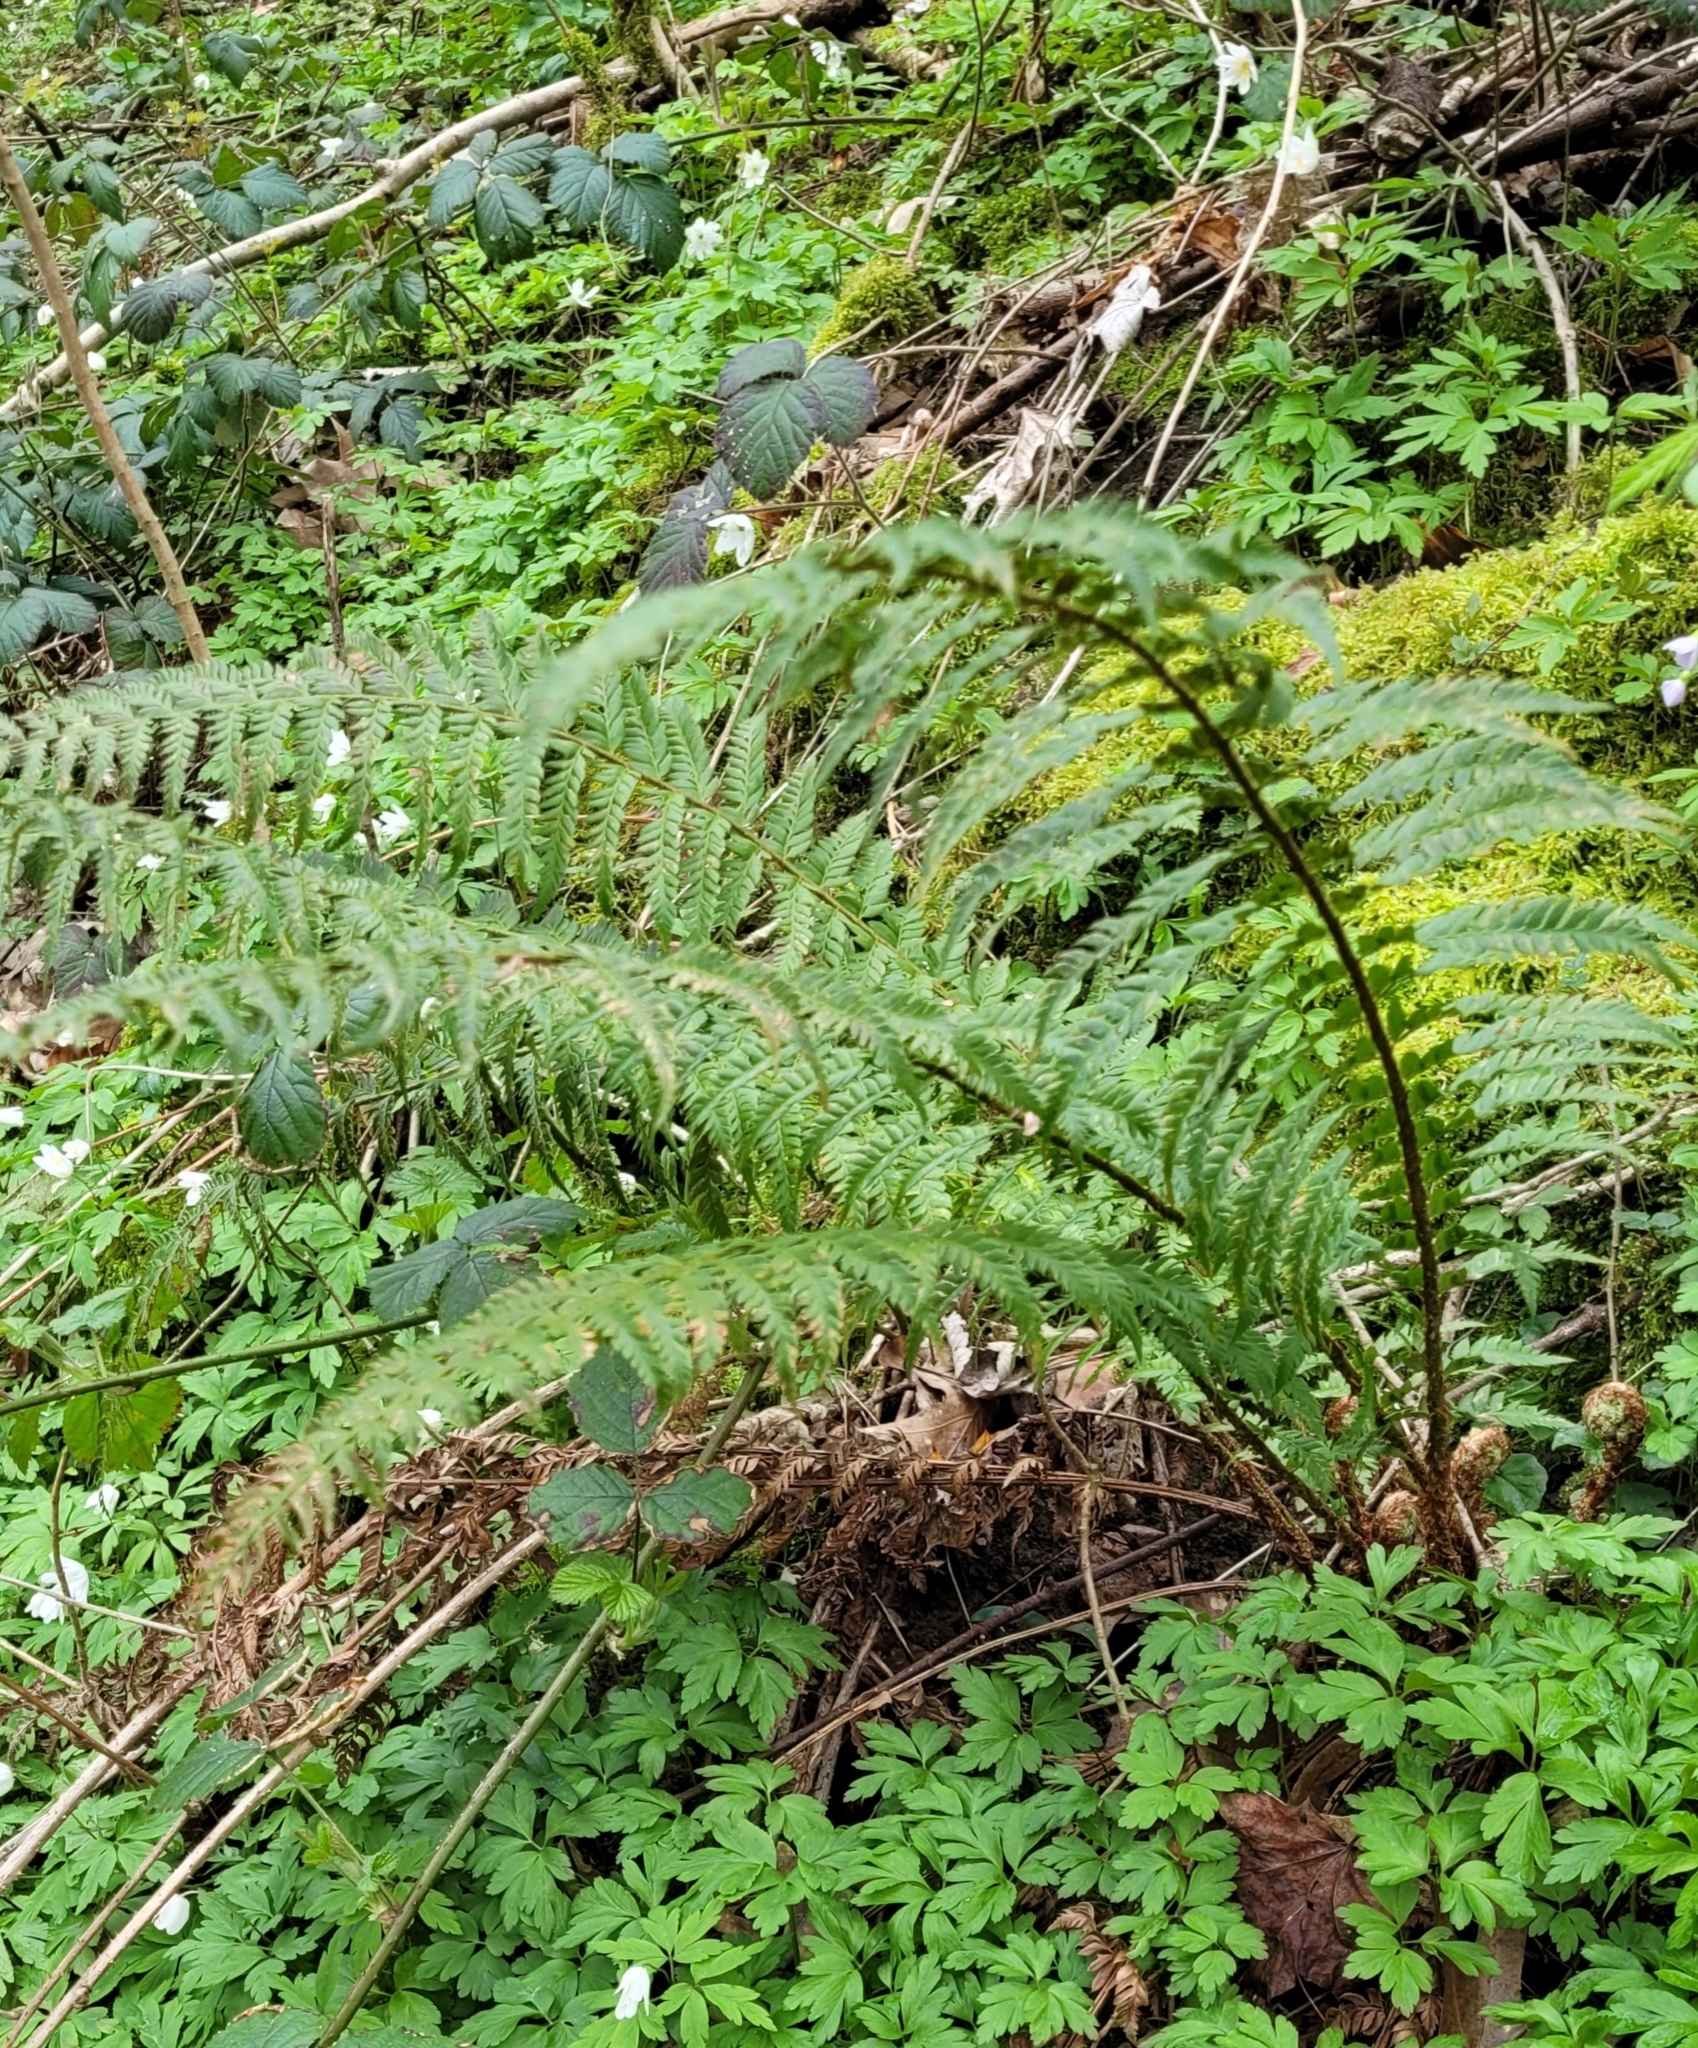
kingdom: Plantae
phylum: Tracheophyta
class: Polypodiopsida
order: Polypodiales
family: Dryopteridaceae
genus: Polystichum
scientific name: Polystichum aculeatum
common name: Hard shield-fern
